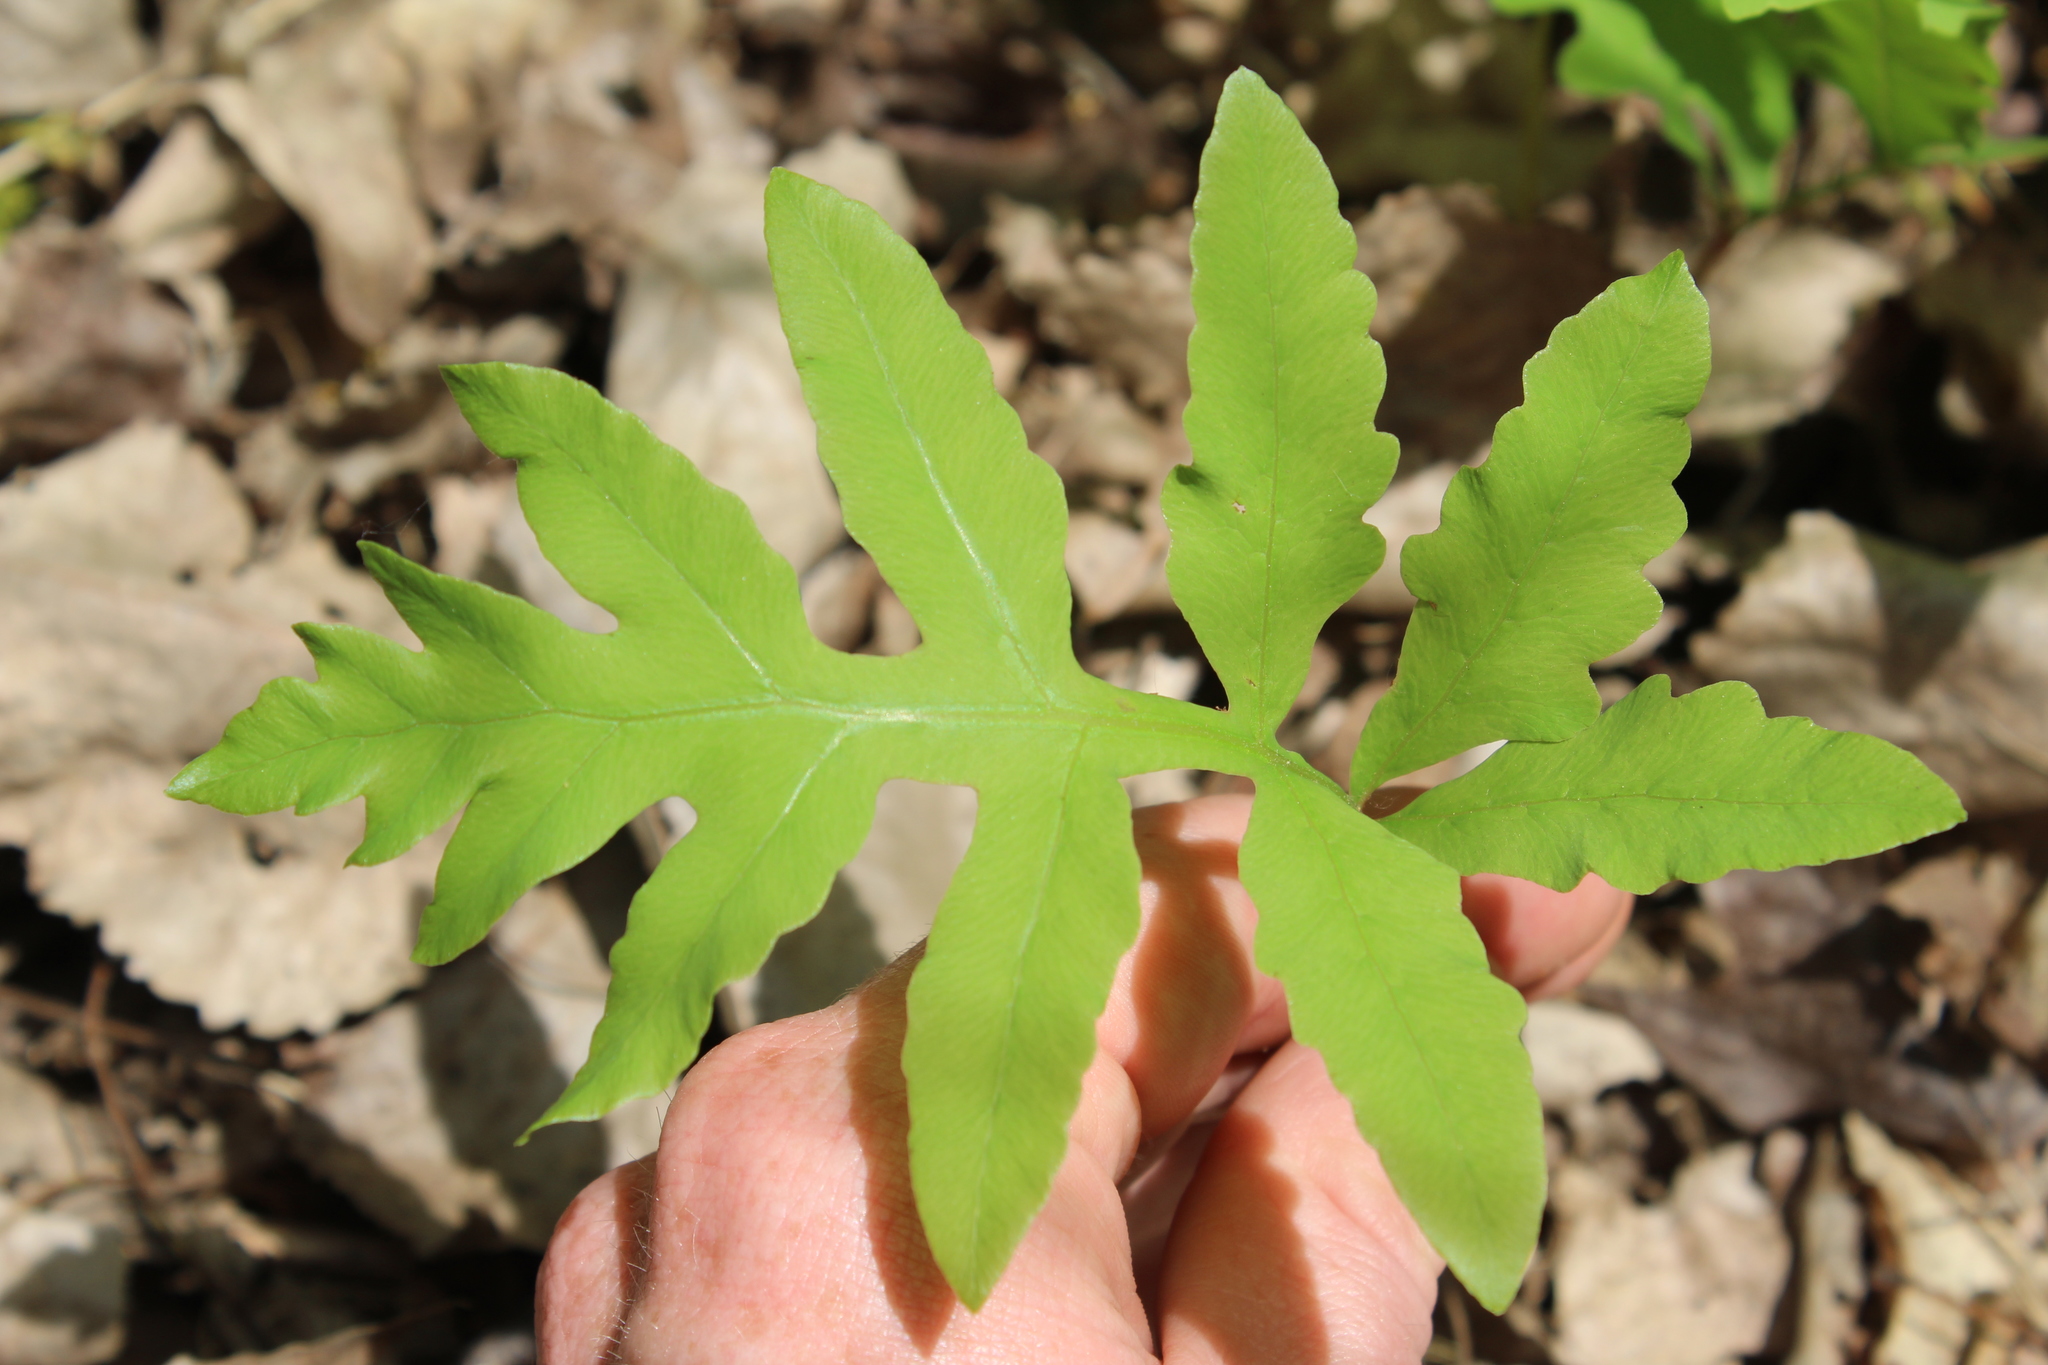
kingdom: Plantae
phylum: Tracheophyta
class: Polypodiopsida
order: Polypodiales
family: Onocleaceae
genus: Onoclea
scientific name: Onoclea sensibilis
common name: Sensitive fern
